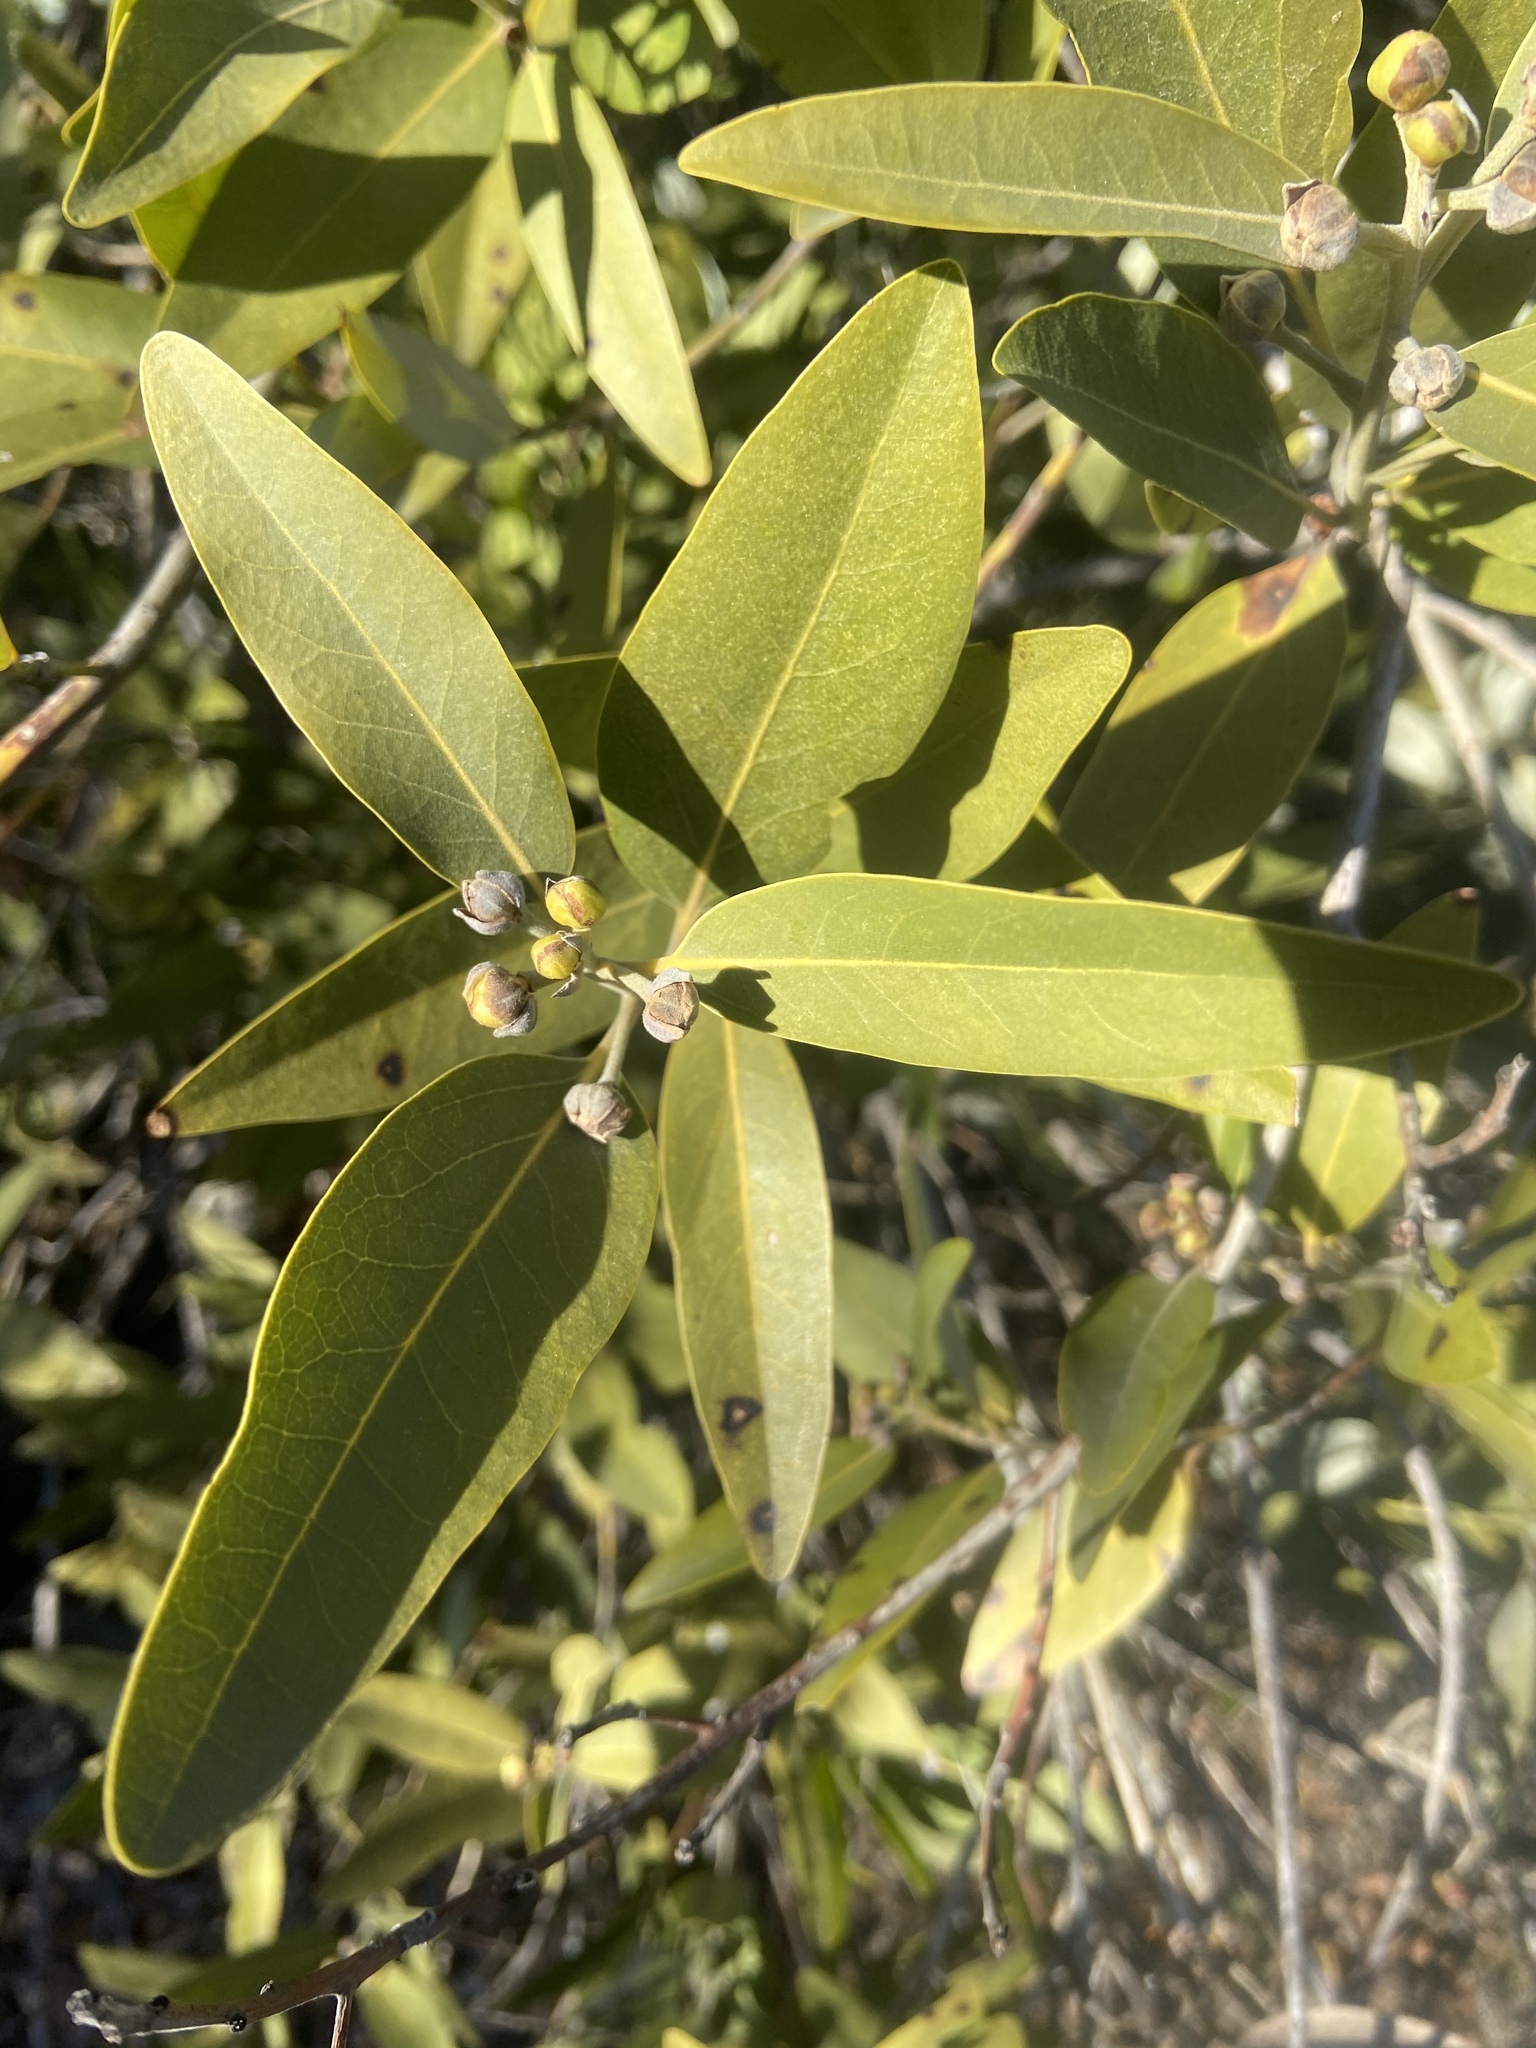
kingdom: Plantae
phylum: Tracheophyta
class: Magnoliopsida
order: Laurales
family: Lauraceae
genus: Umbellularia
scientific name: Umbellularia californica
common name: California bay
